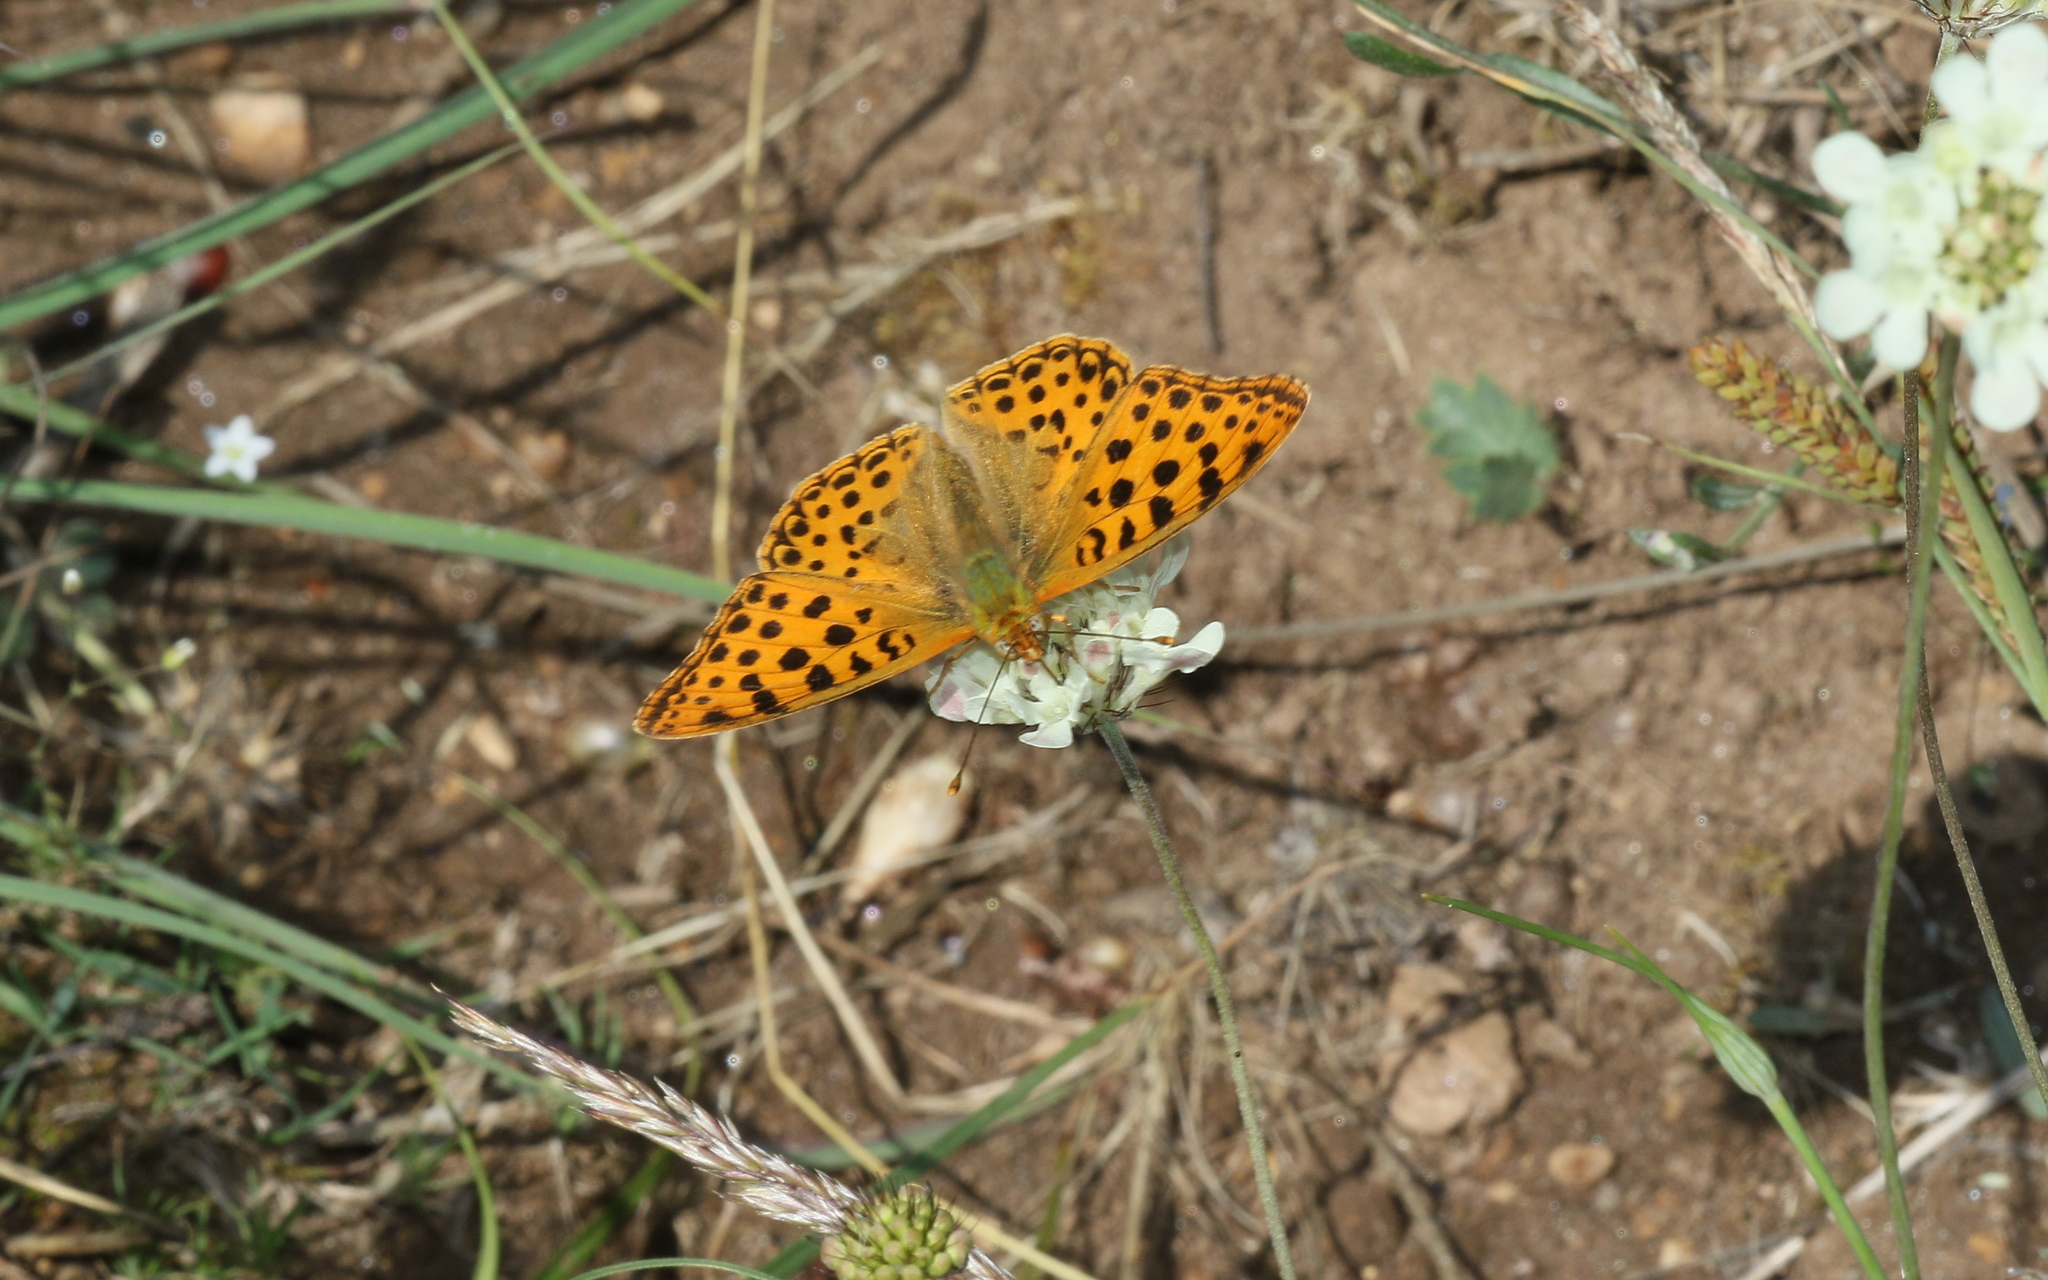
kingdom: Animalia
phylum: Arthropoda
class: Insecta
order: Lepidoptera
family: Nymphalidae
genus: Issoria
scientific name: Issoria lathonia
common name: Queen of spain fritillary
